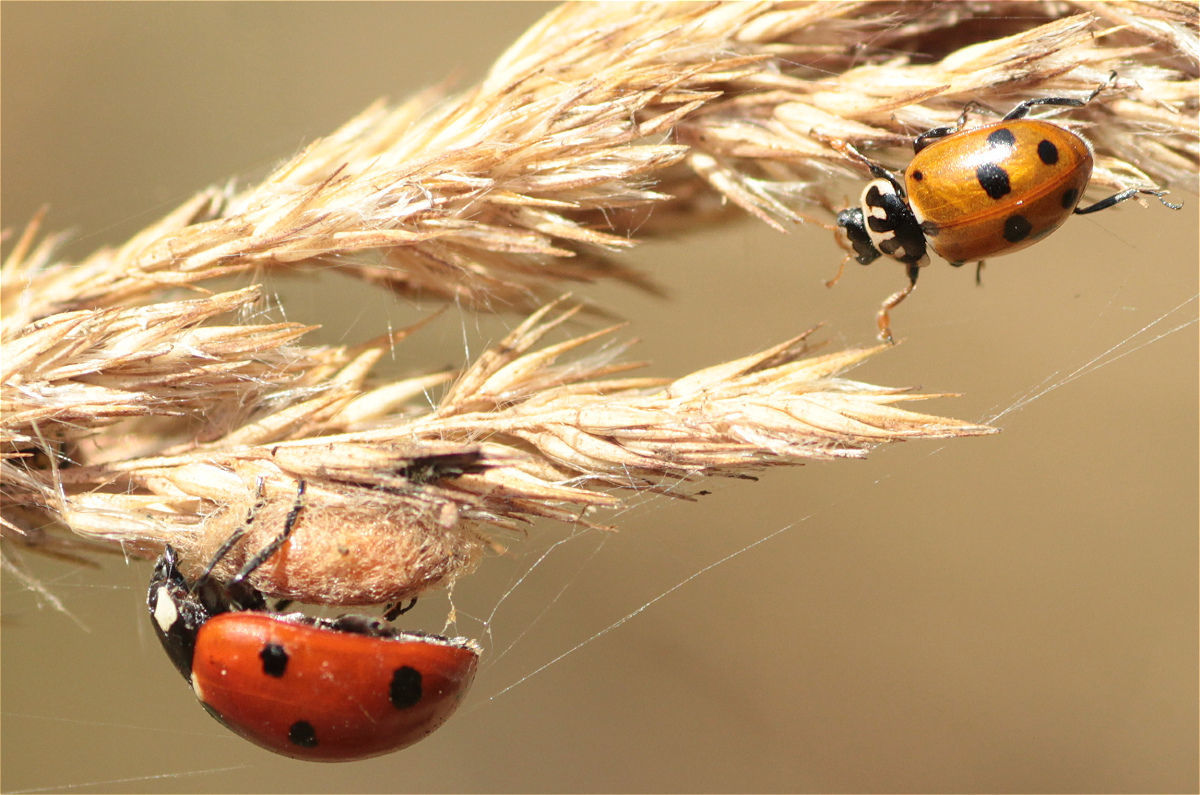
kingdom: Animalia
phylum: Arthropoda
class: Insecta
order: Coleoptera
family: Coccinellidae
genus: Hippodamia
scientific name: Hippodamia variegata
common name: Ladybird beetle
